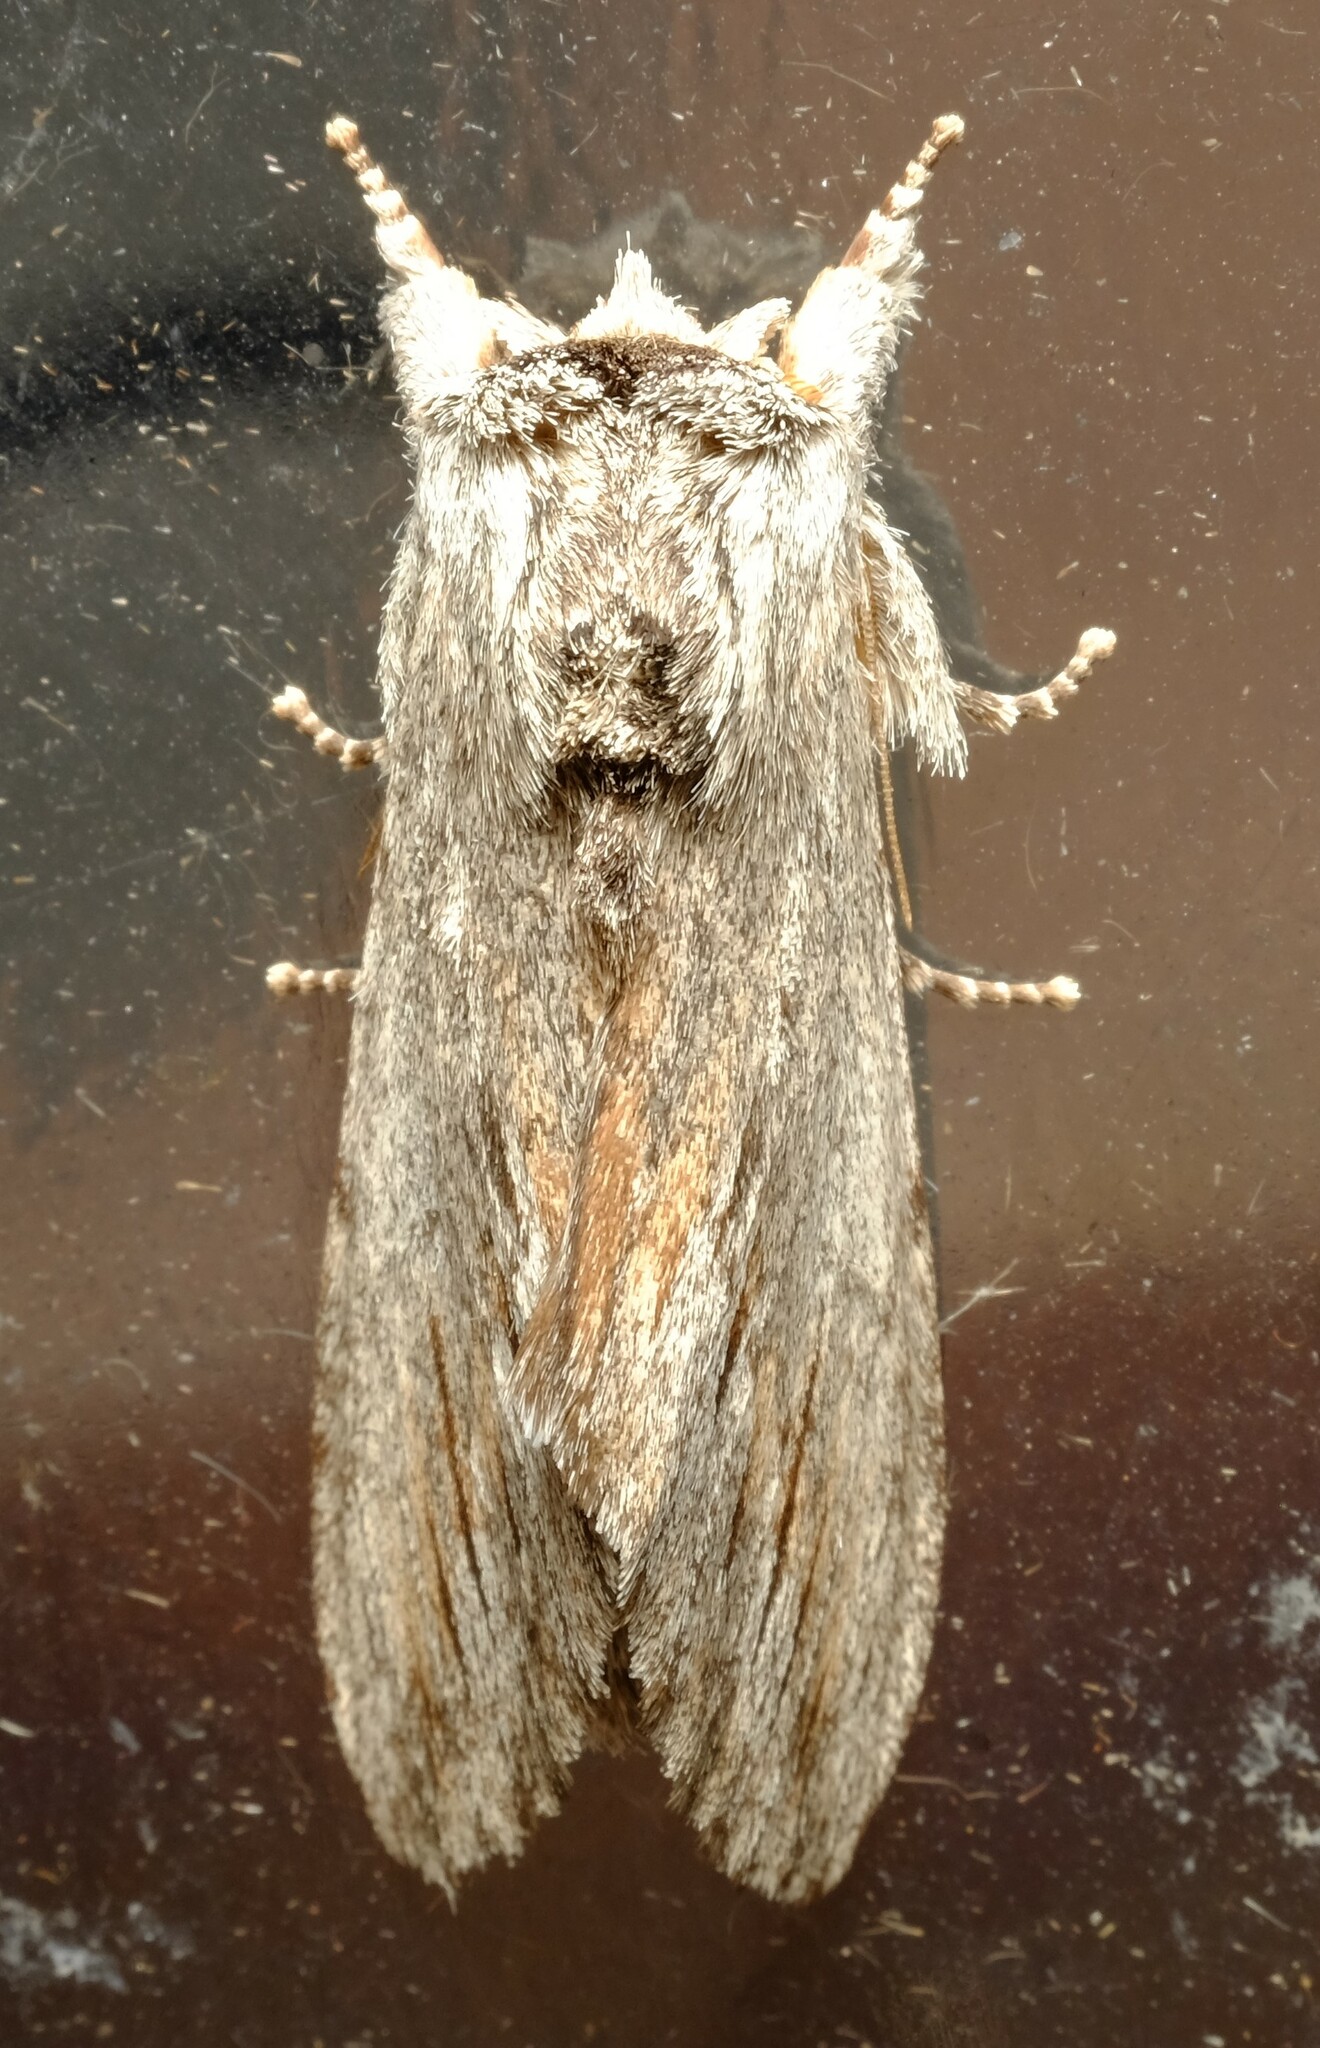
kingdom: Animalia
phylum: Arthropoda
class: Insecta
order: Lepidoptera
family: Notodontidae
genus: Destolmia
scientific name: Destolmia lineata
